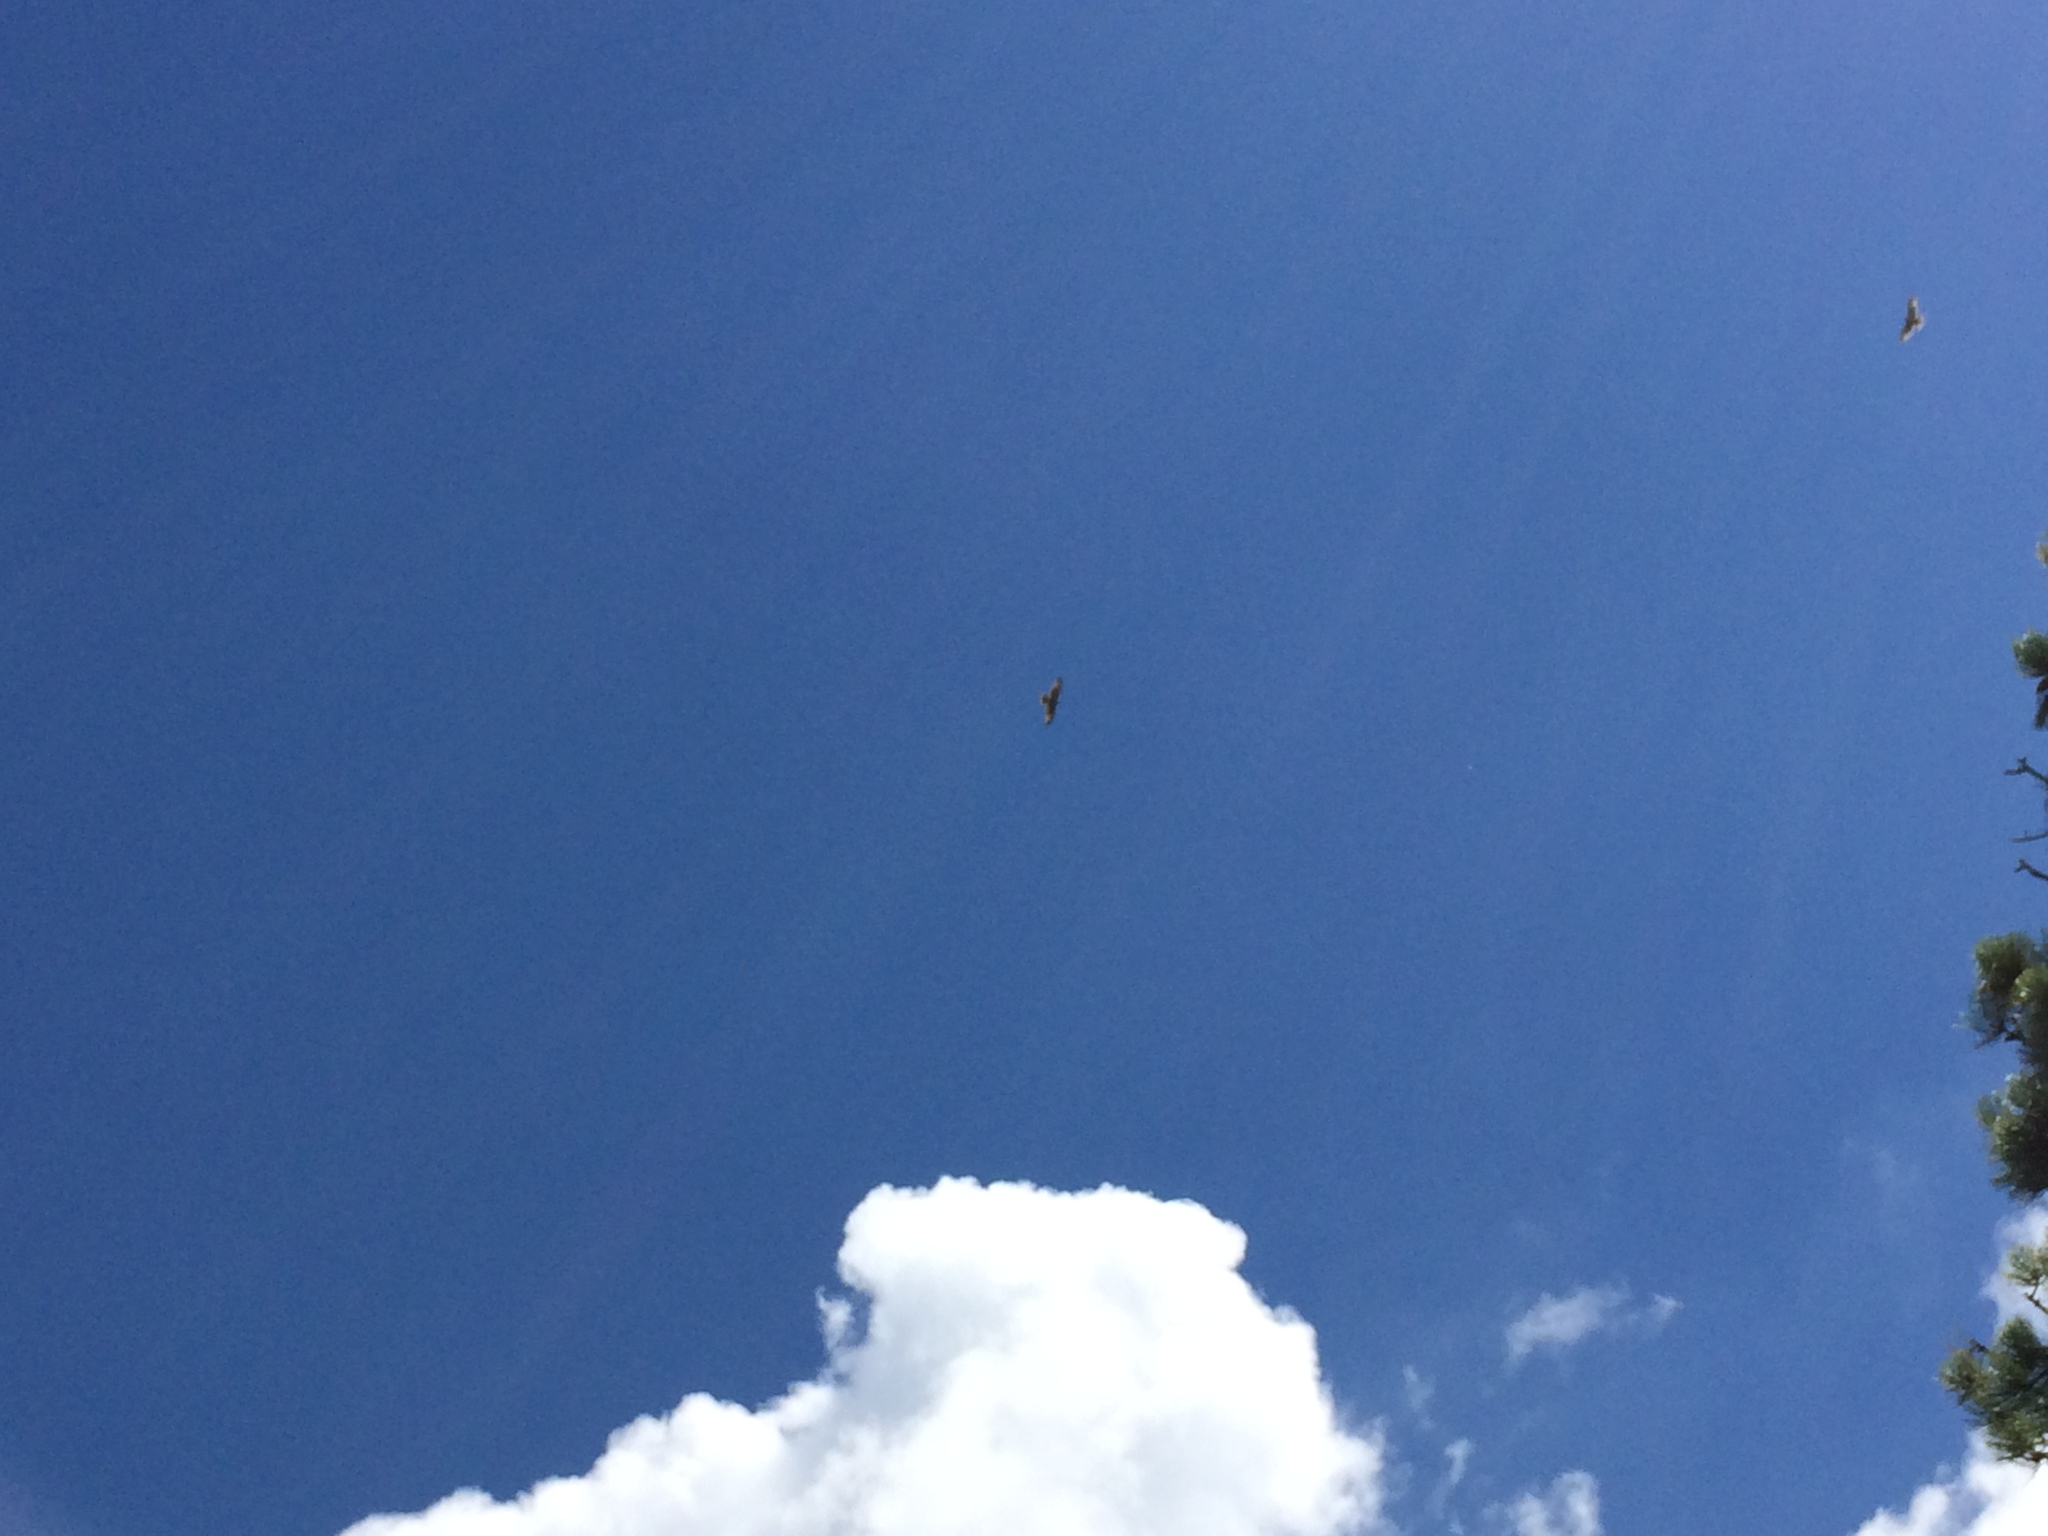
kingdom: Animalia
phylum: Chordata
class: Aves
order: Accipitriformes
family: Accipitridae
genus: Buteo
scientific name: Buteo jamaicensis
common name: Red-tailed hawk
